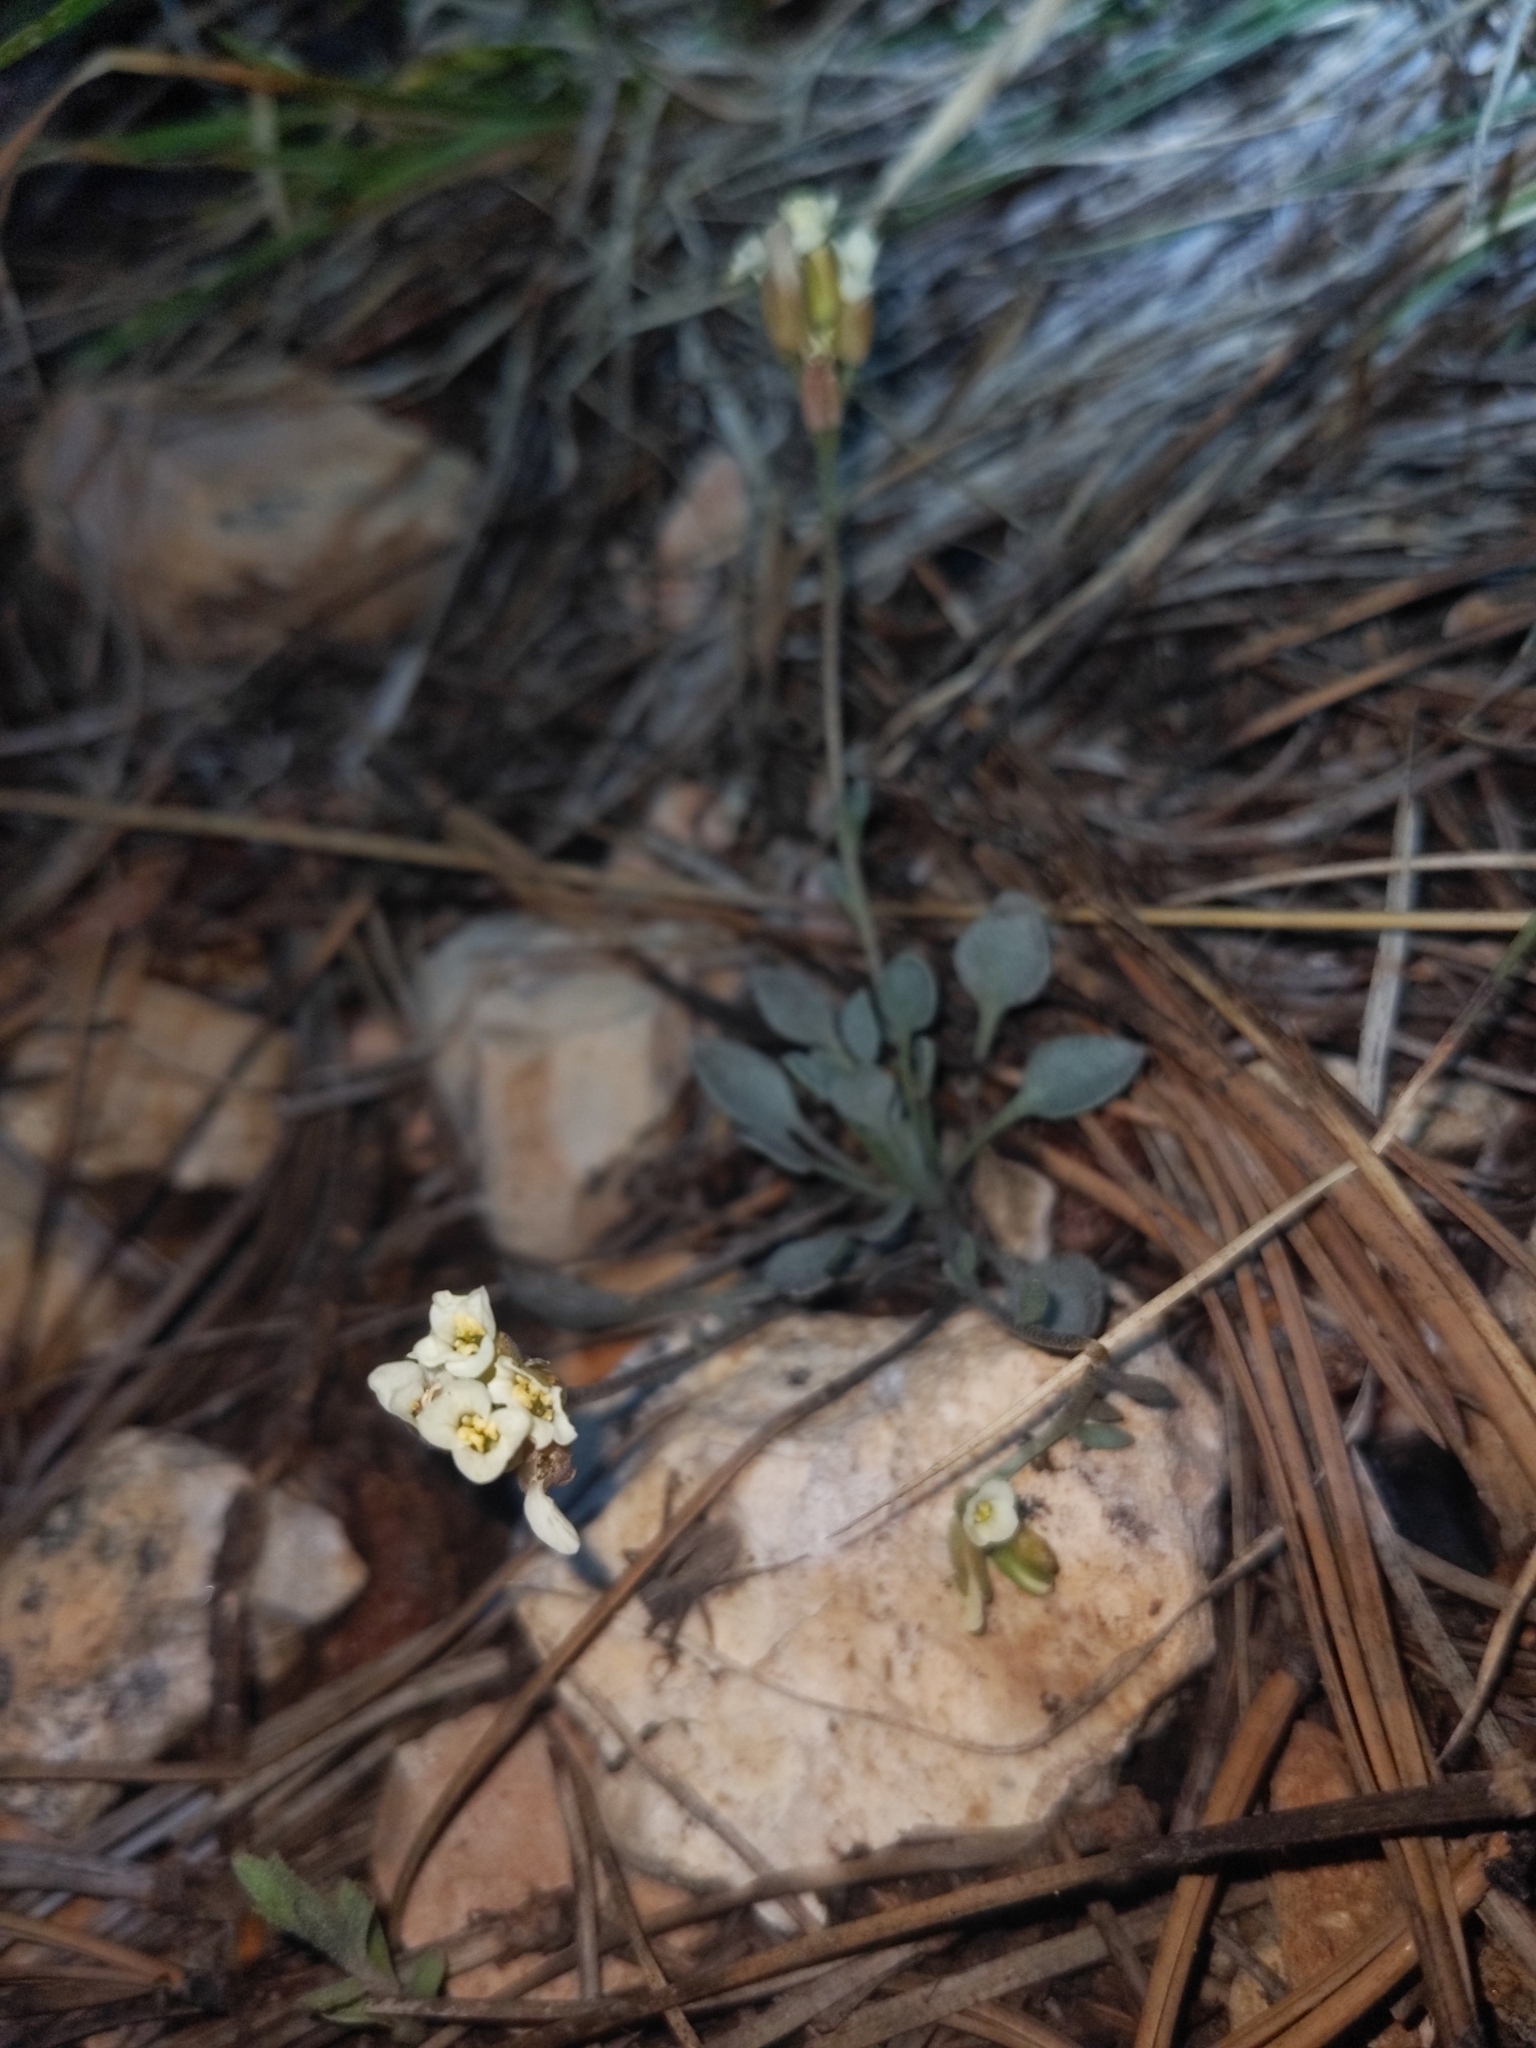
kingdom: Plantae
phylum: Tracheophyta
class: Magnoliopsida
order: Brassicales
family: Brassicaceae
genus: Noccaea
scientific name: Noccaea fendleri
